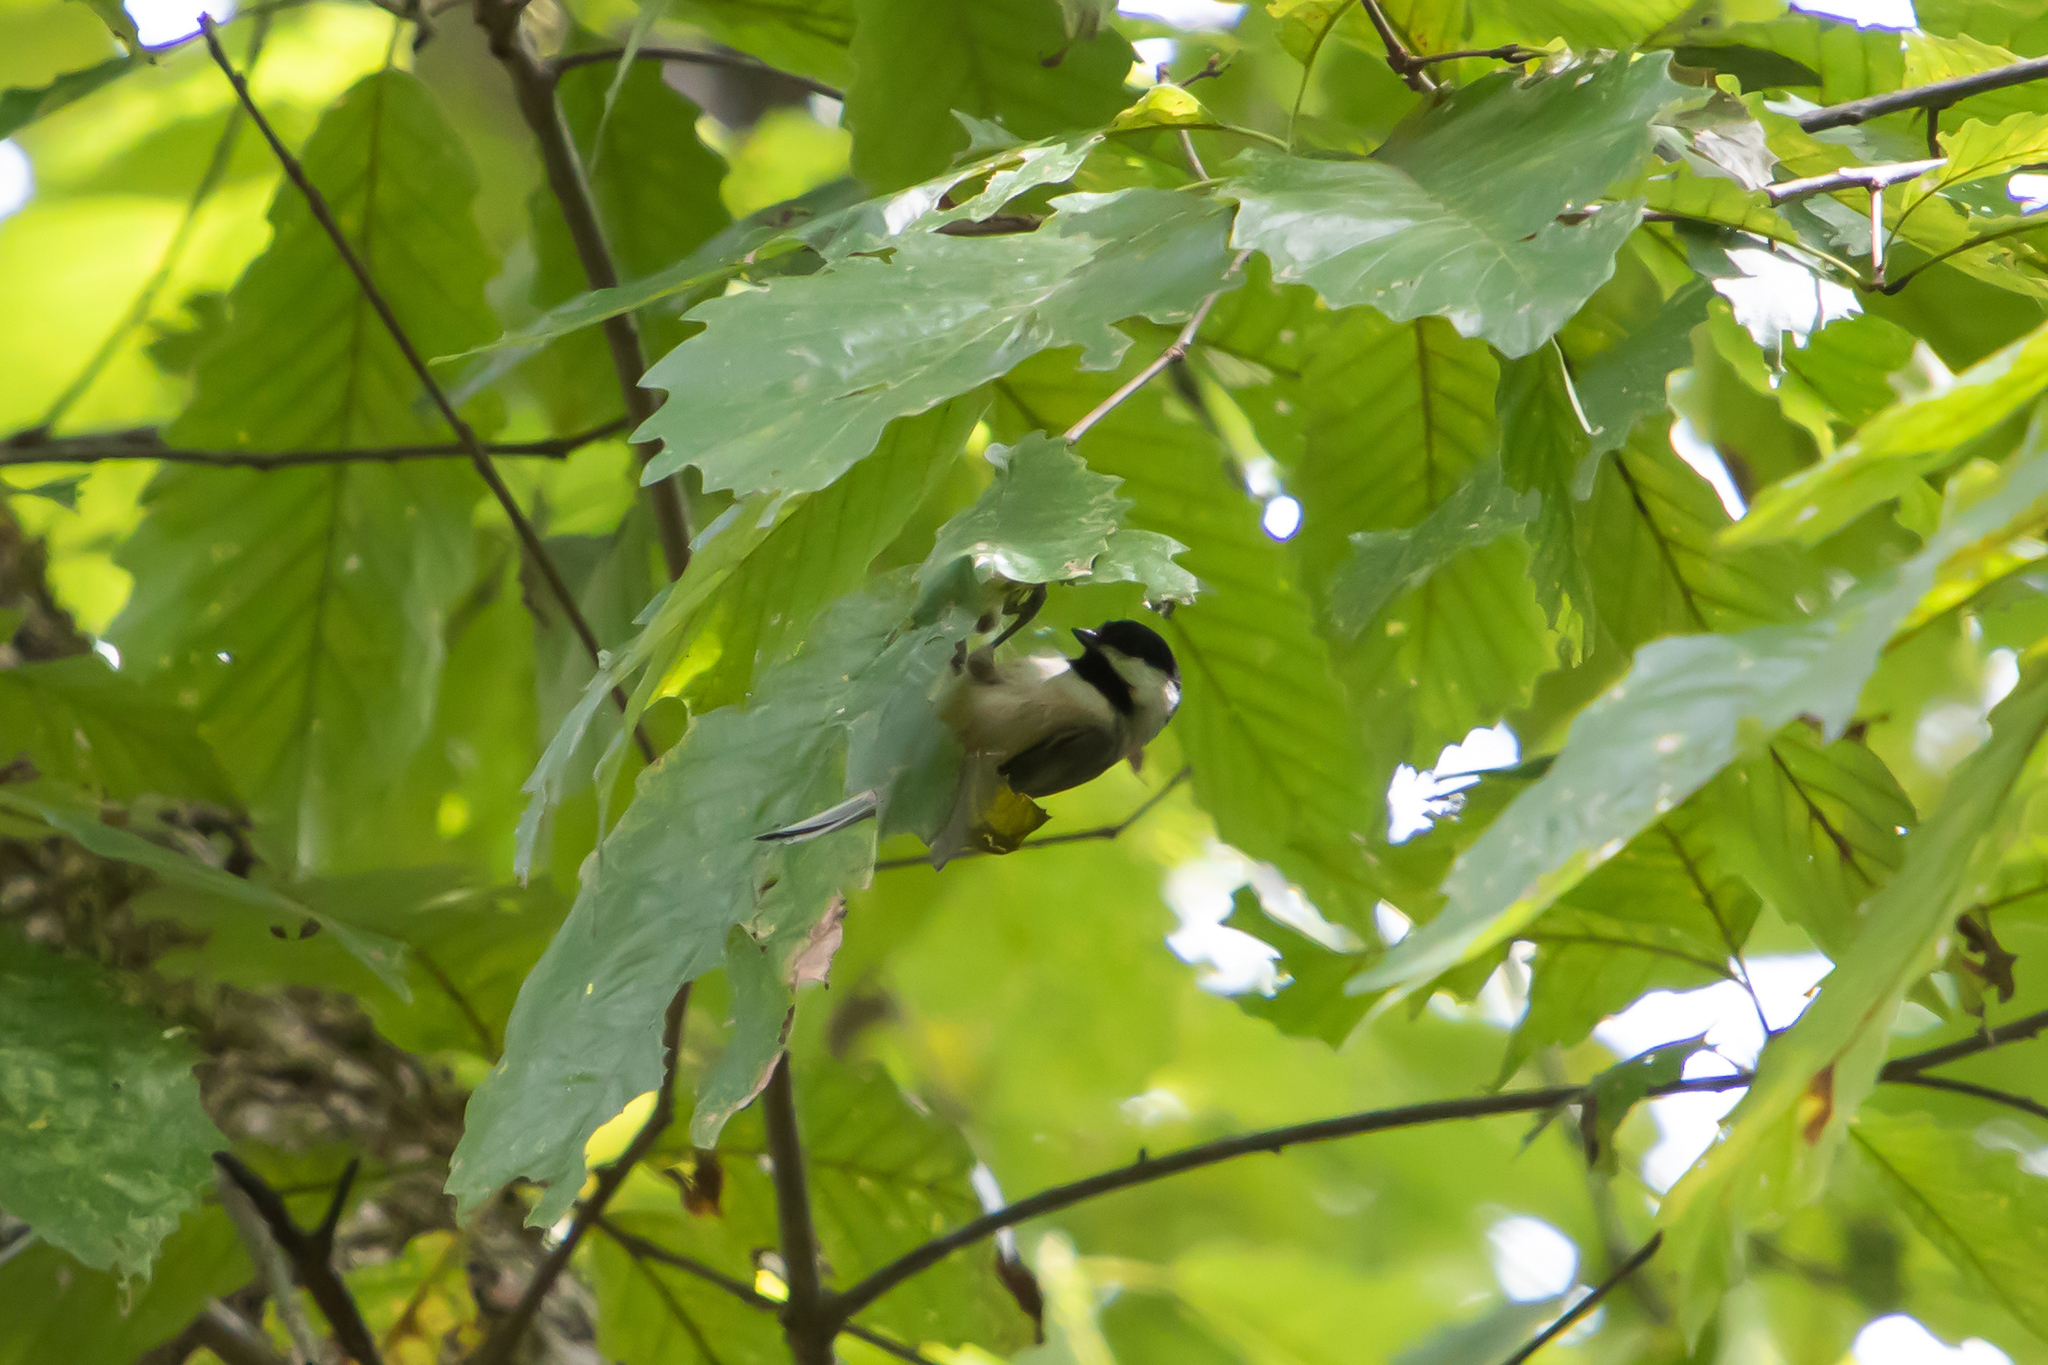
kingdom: Animalia
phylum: Chordata
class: Aves
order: Passeriformes
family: Paridae
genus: Poecile
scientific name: Poecile carolinensis
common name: Carolina chickadee
